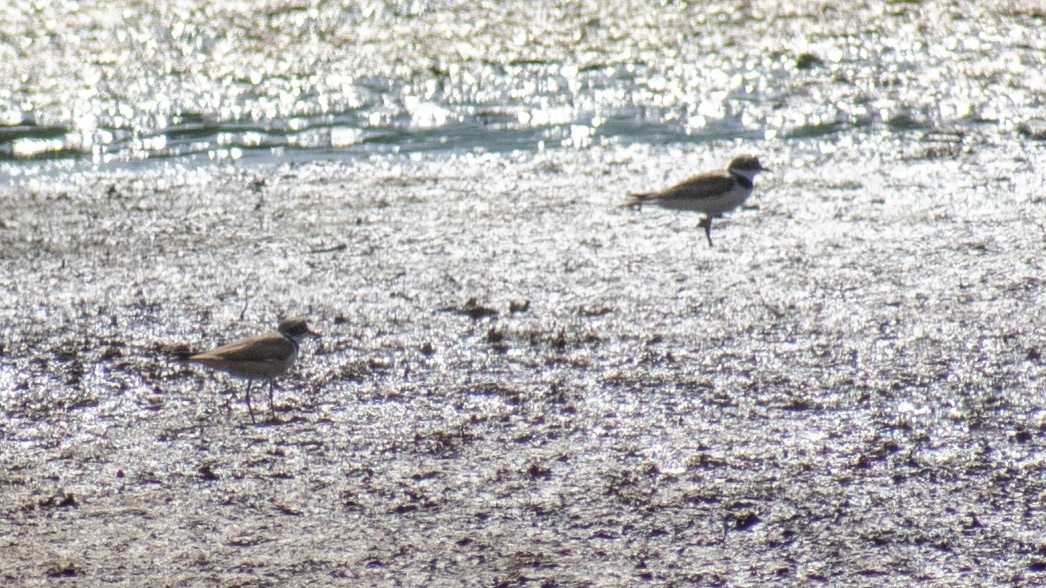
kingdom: Animalia
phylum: Chordata
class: Aves
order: Charadriiformes
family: Charadriidae
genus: Charadrius
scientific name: Charadrius dubius
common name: Little ringed plover
